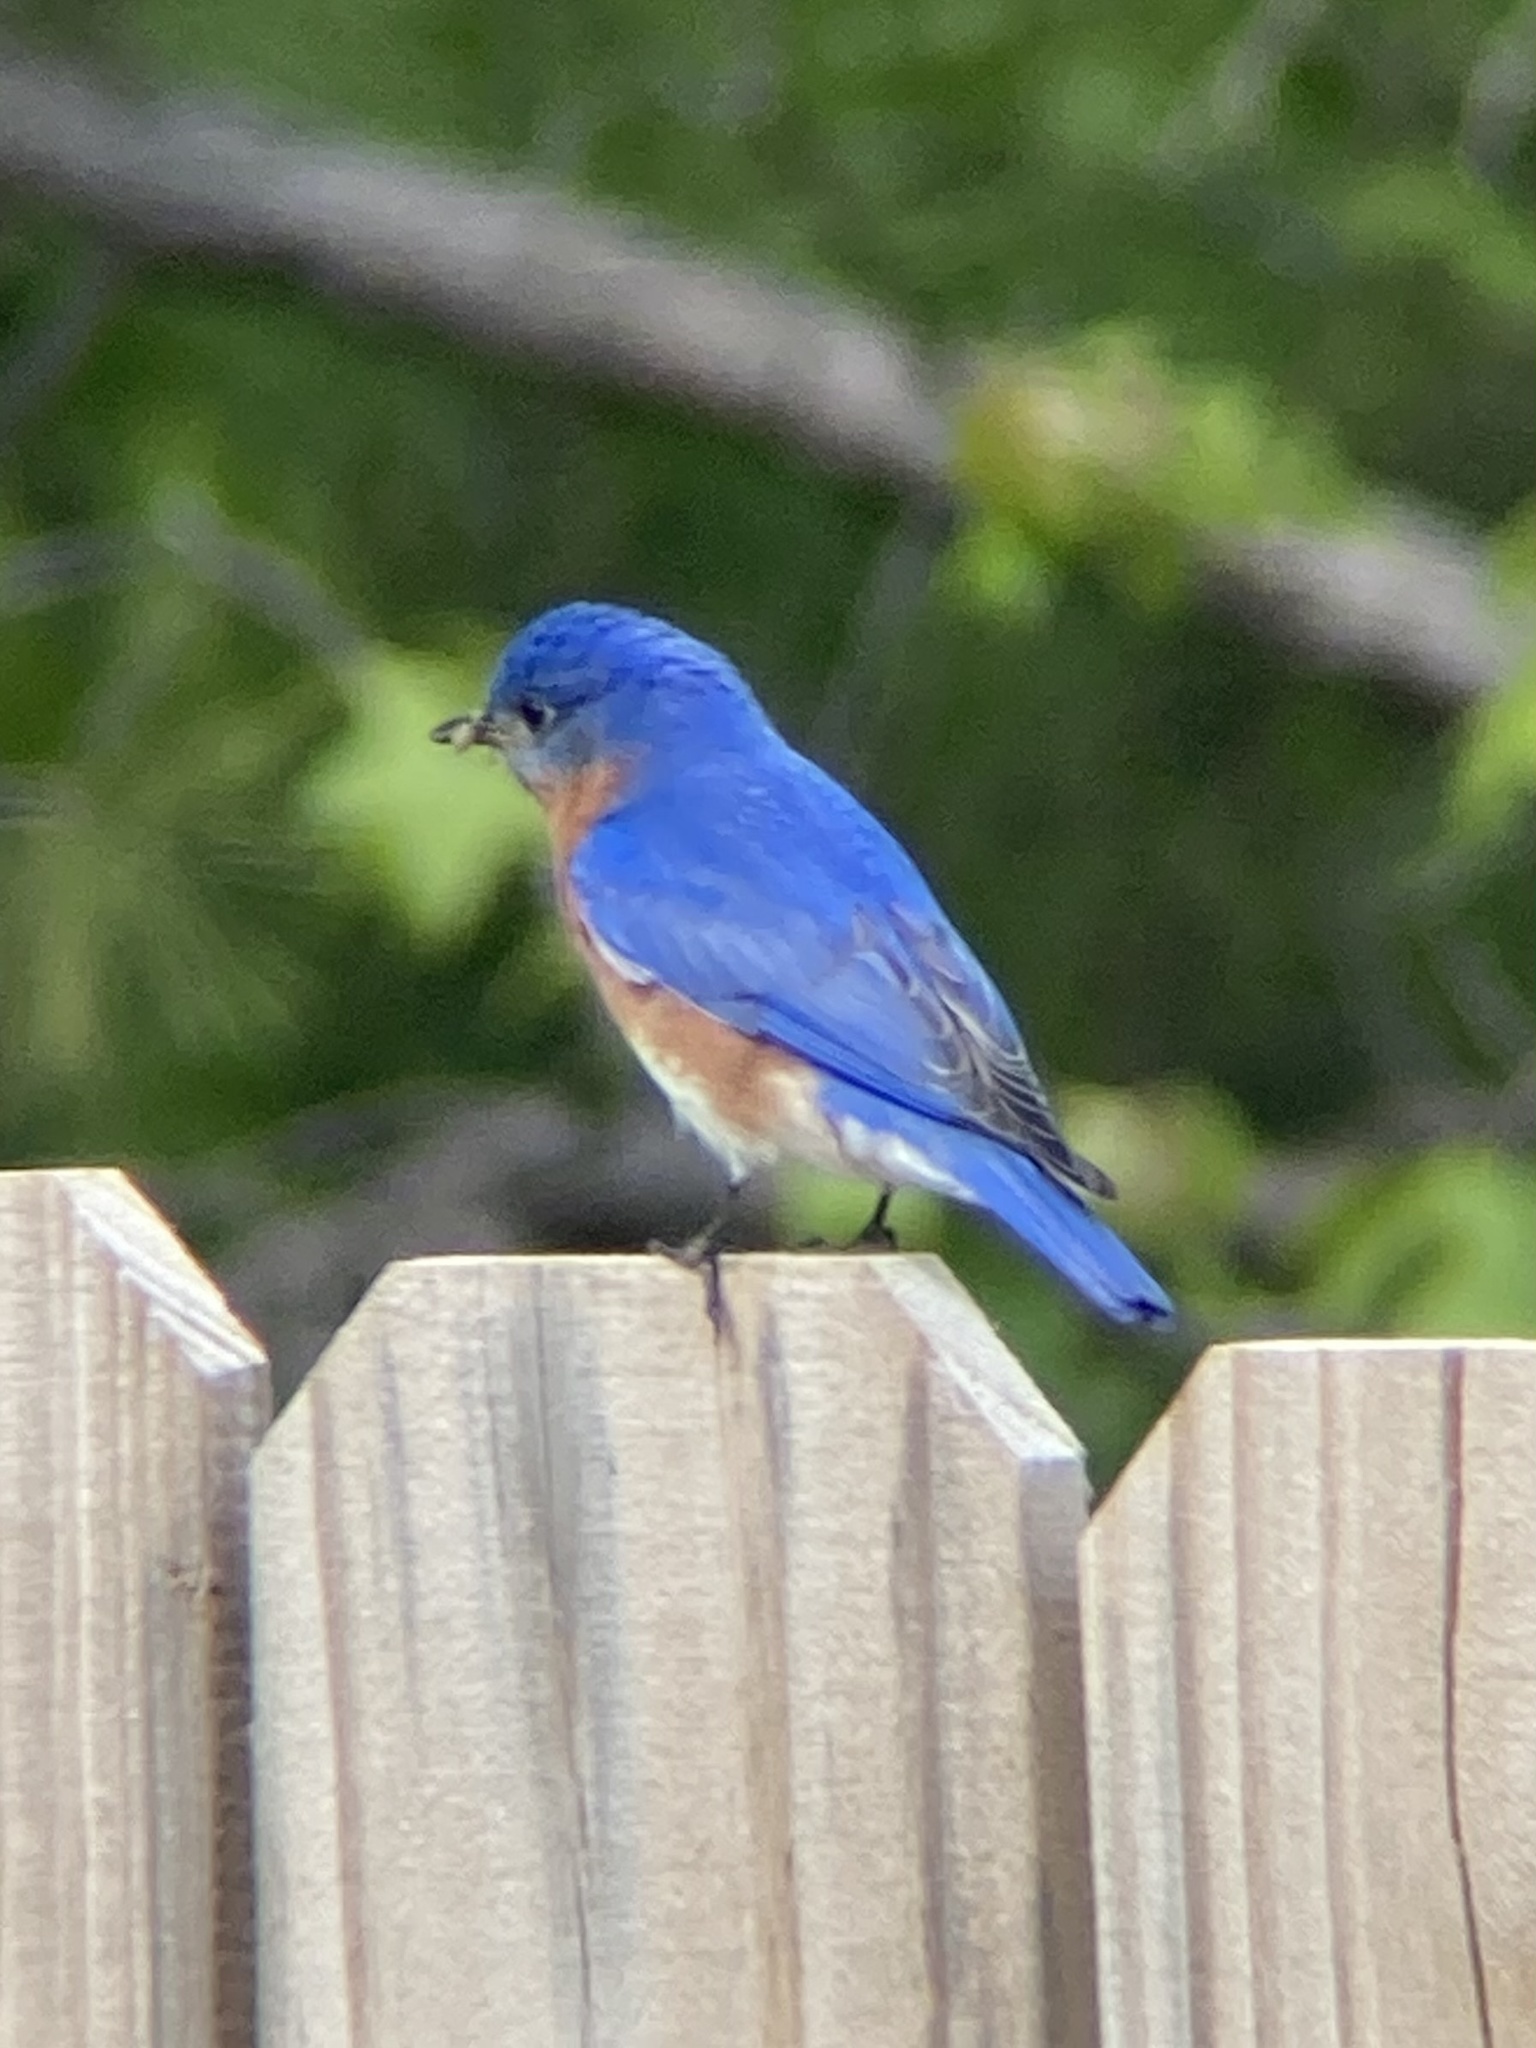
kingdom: Animalia
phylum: Chordata
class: Aves
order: Passeriformes
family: Turdidae
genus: Sialia
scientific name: Sialia sialis
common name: Eastern bluebird
